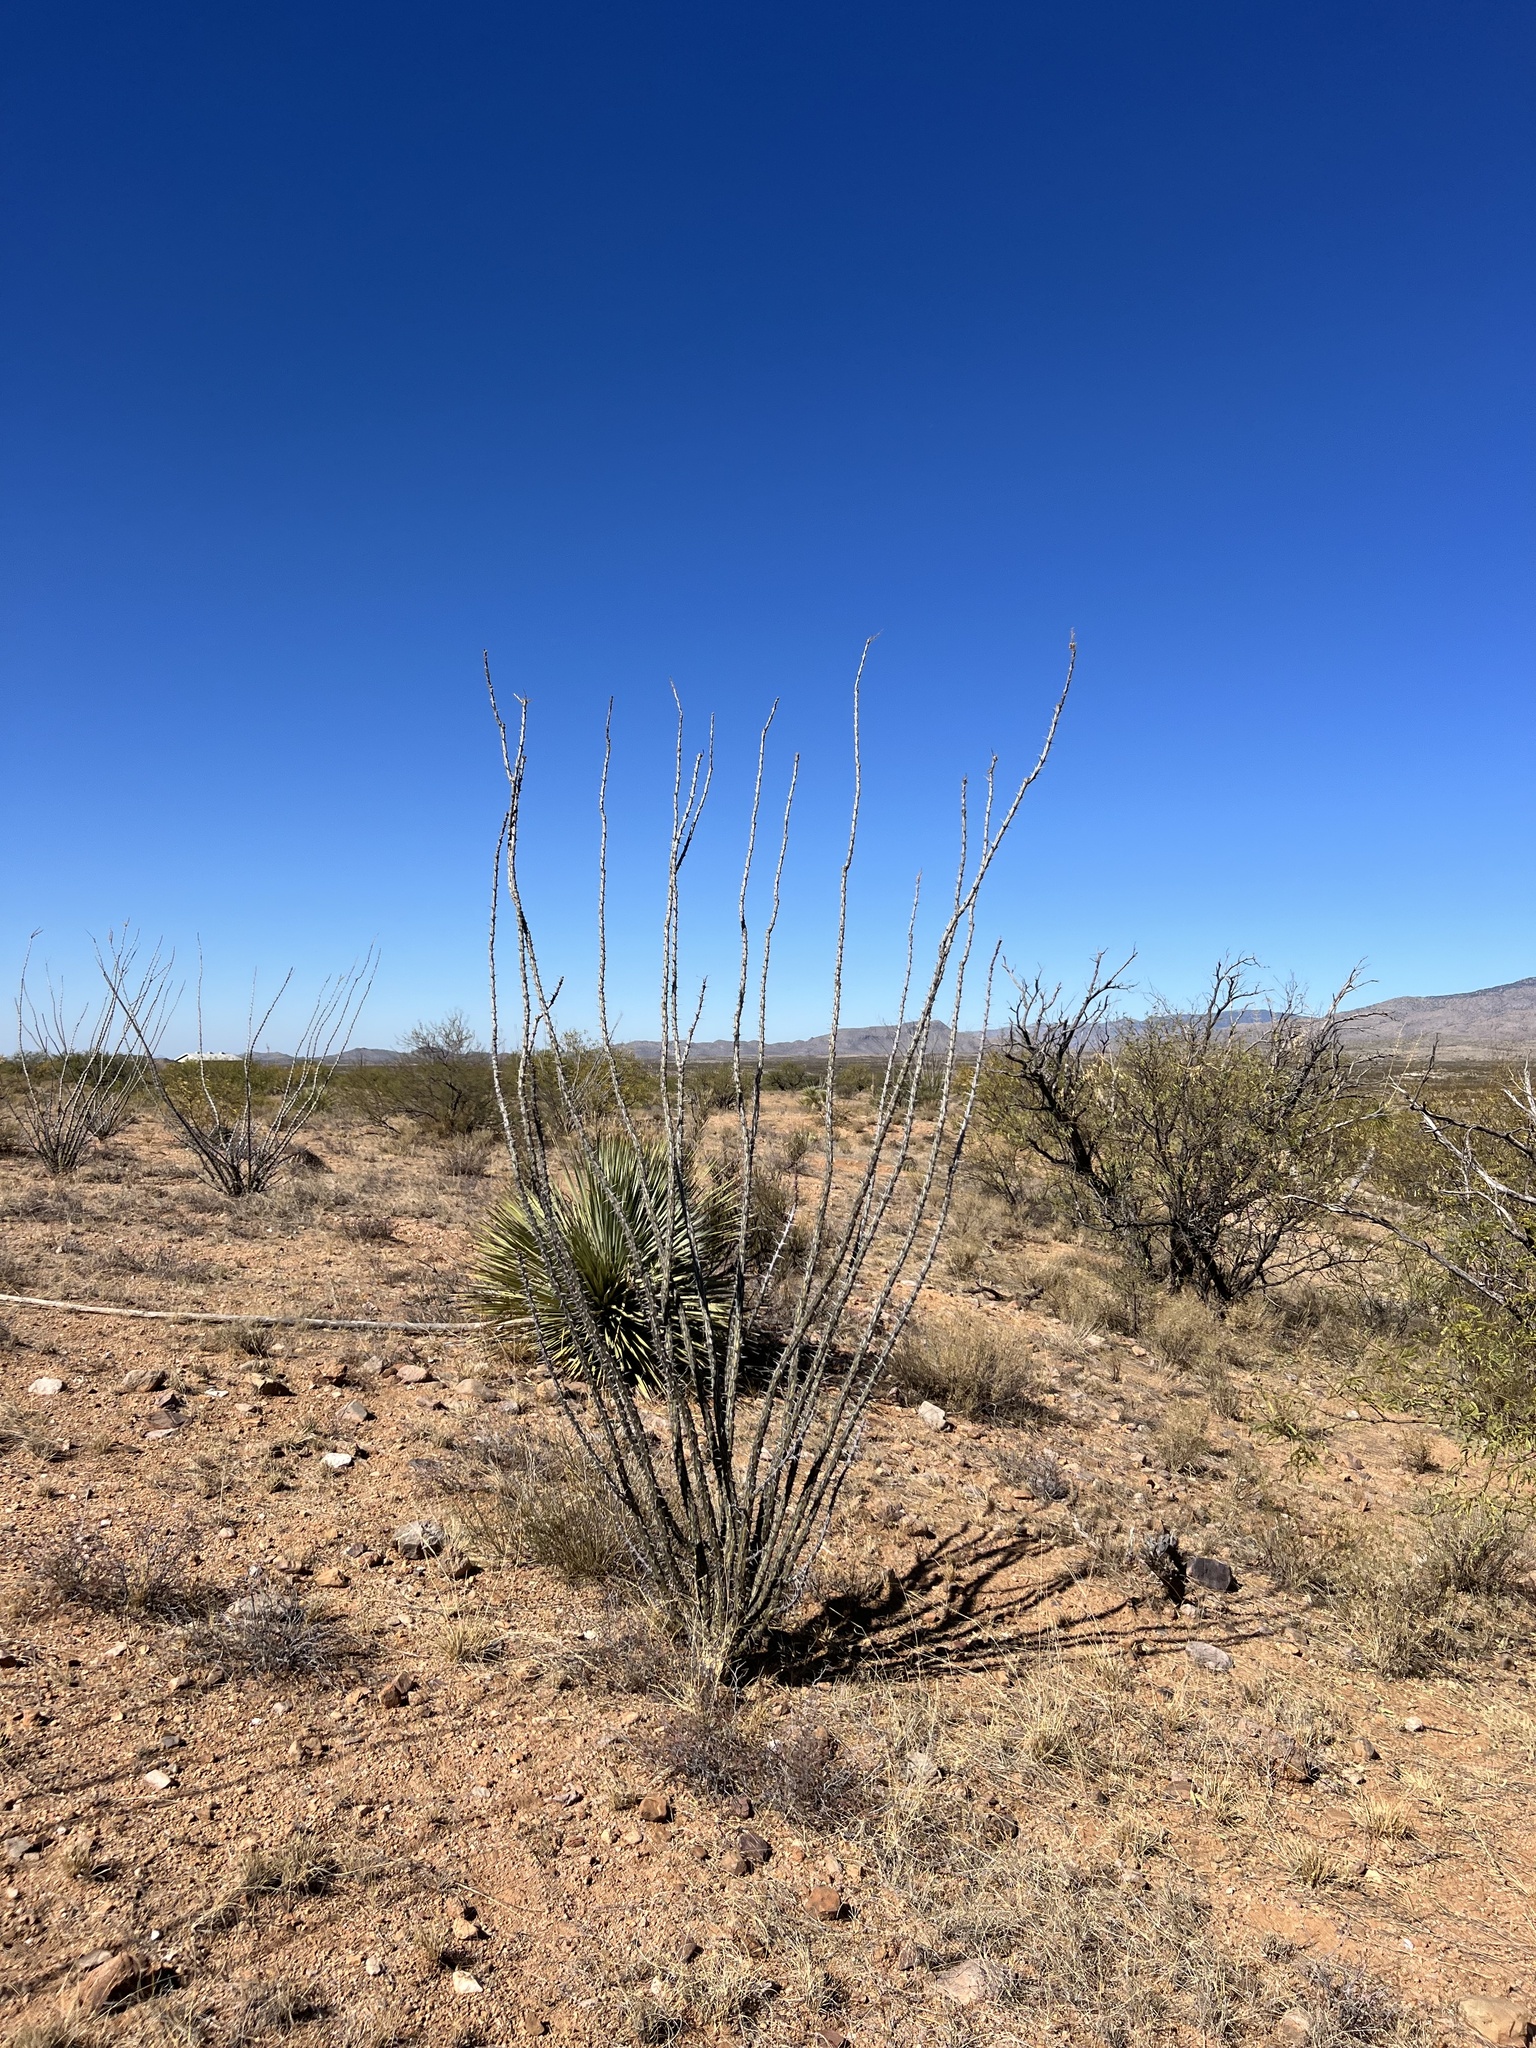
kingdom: Plantae
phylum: Tracheophyta
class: Magnoliopsida
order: Ericales
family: Fouquieriaceae
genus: Fouquieria
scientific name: Fouquieria splendens
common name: Vine-cactus
